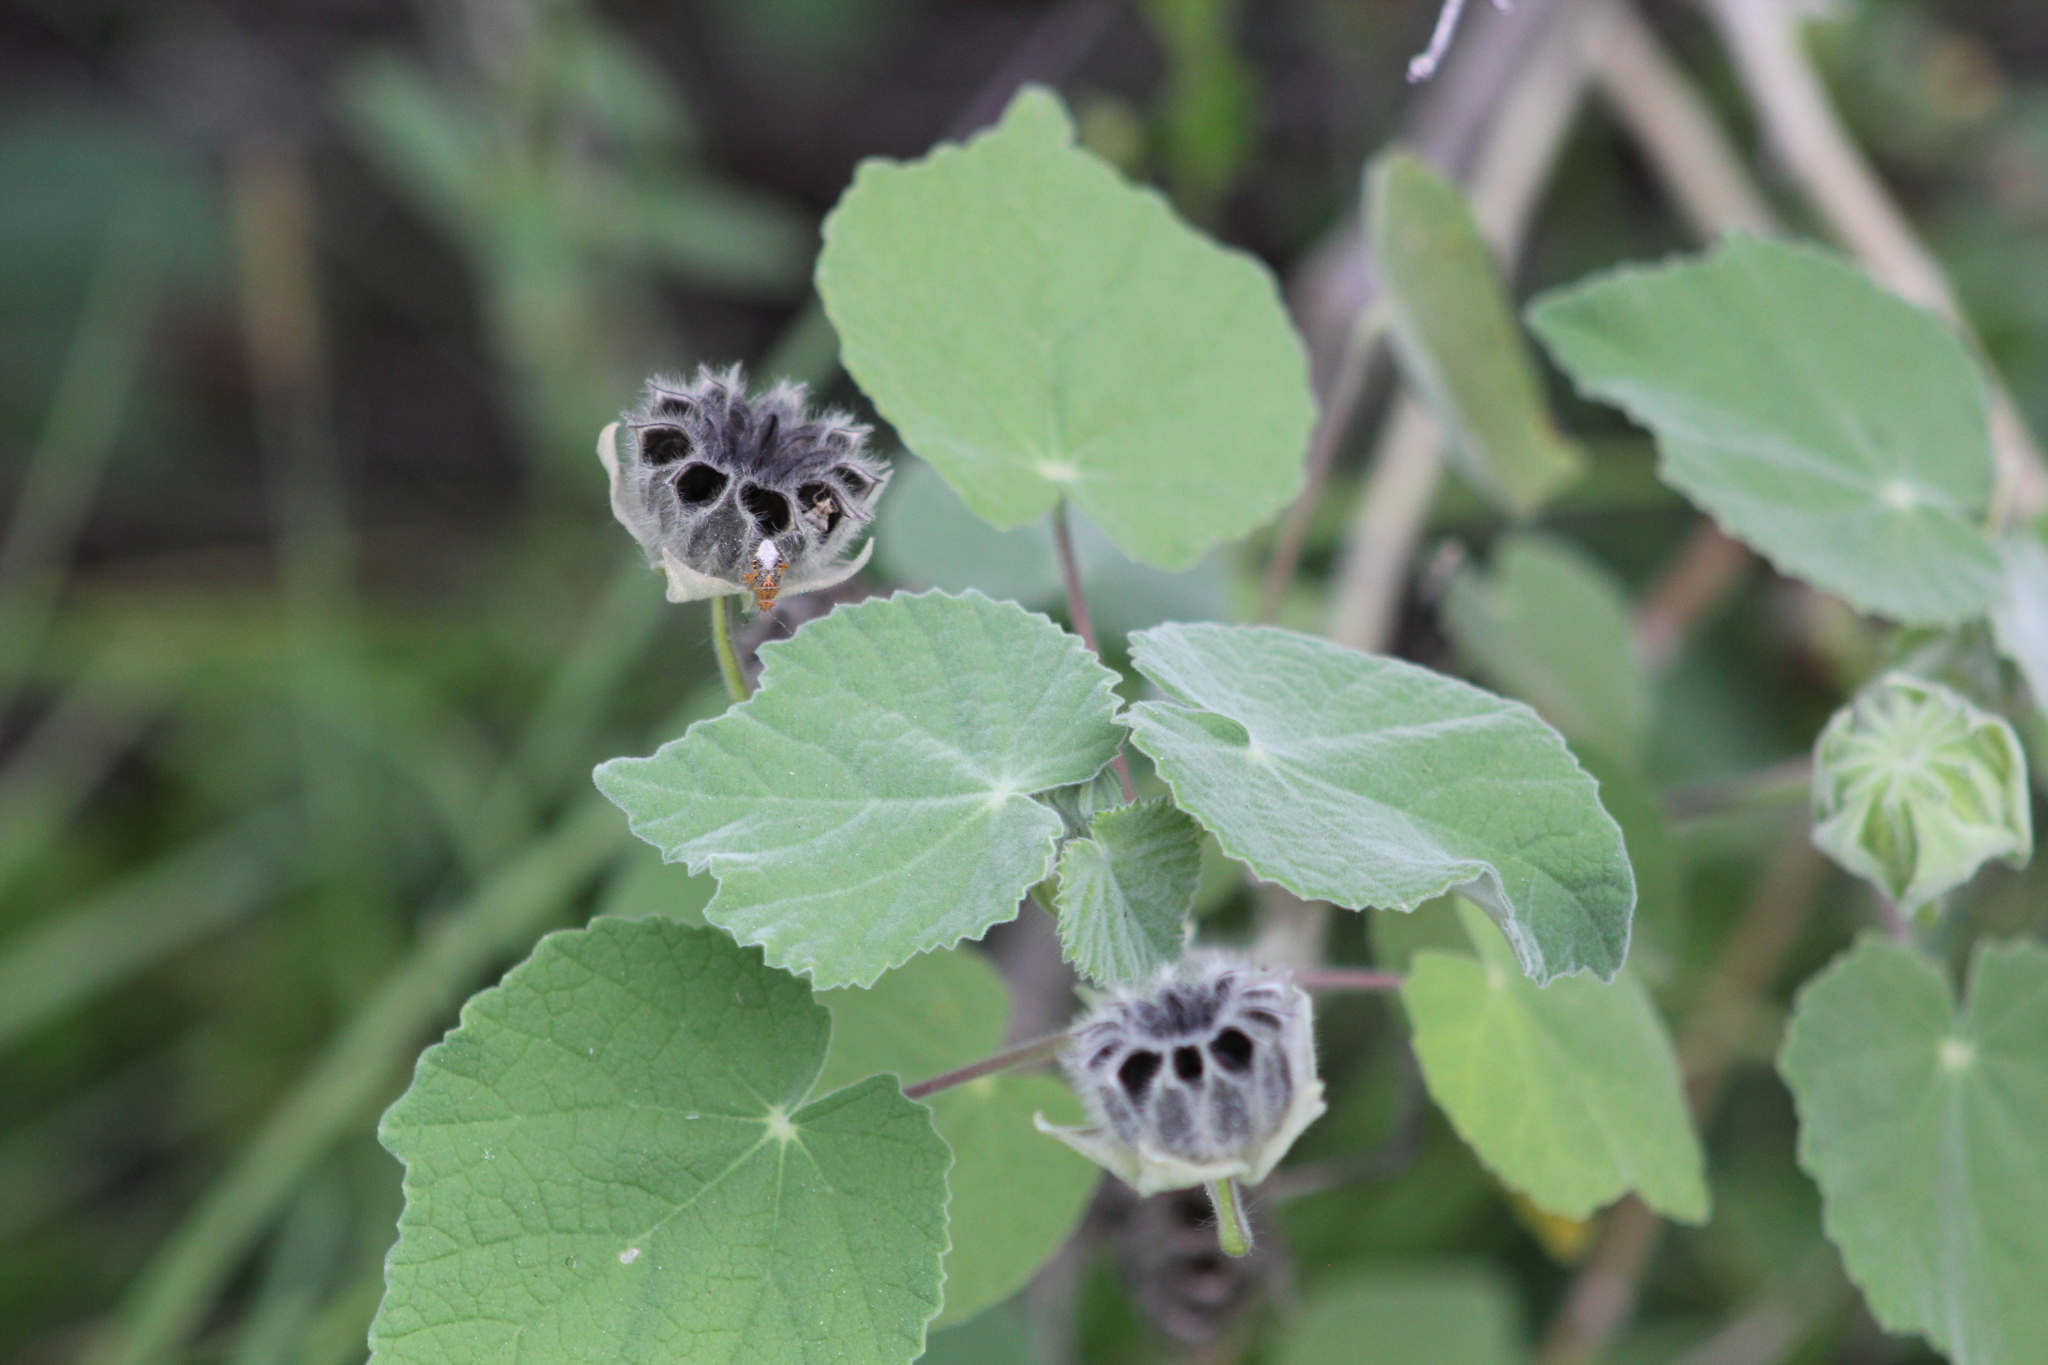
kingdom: Plantae
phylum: Tracheophyta
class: Magnoliopsida
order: Malvales
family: Malvaceae
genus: Abutilon
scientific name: Abutilon grandifolium
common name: Hairy abutilon
